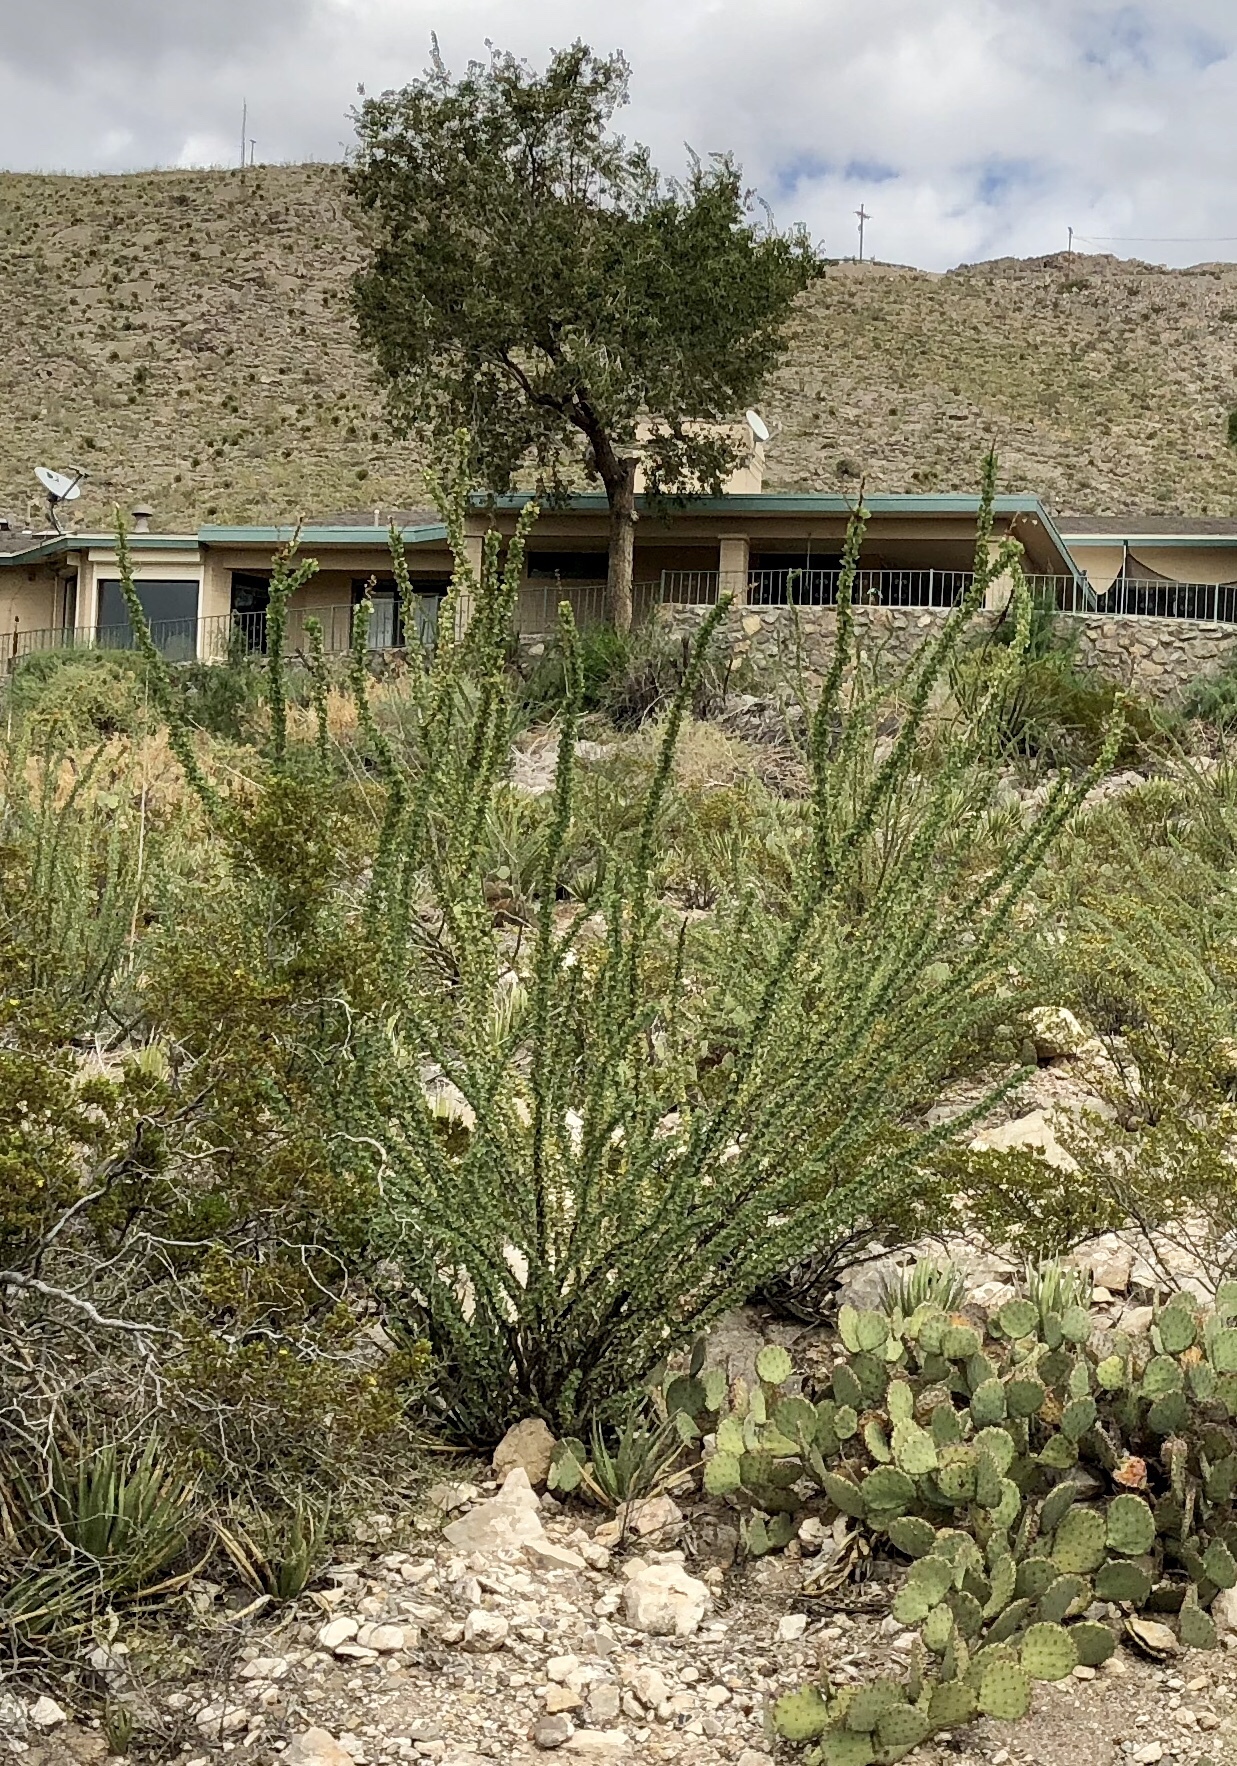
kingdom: Plantae
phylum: Tracheophyta
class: Magnoliopsida
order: Ericales
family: Fouquieriaceae
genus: Fouquieria
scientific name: Fouquieria splendens
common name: Vine-cactus
